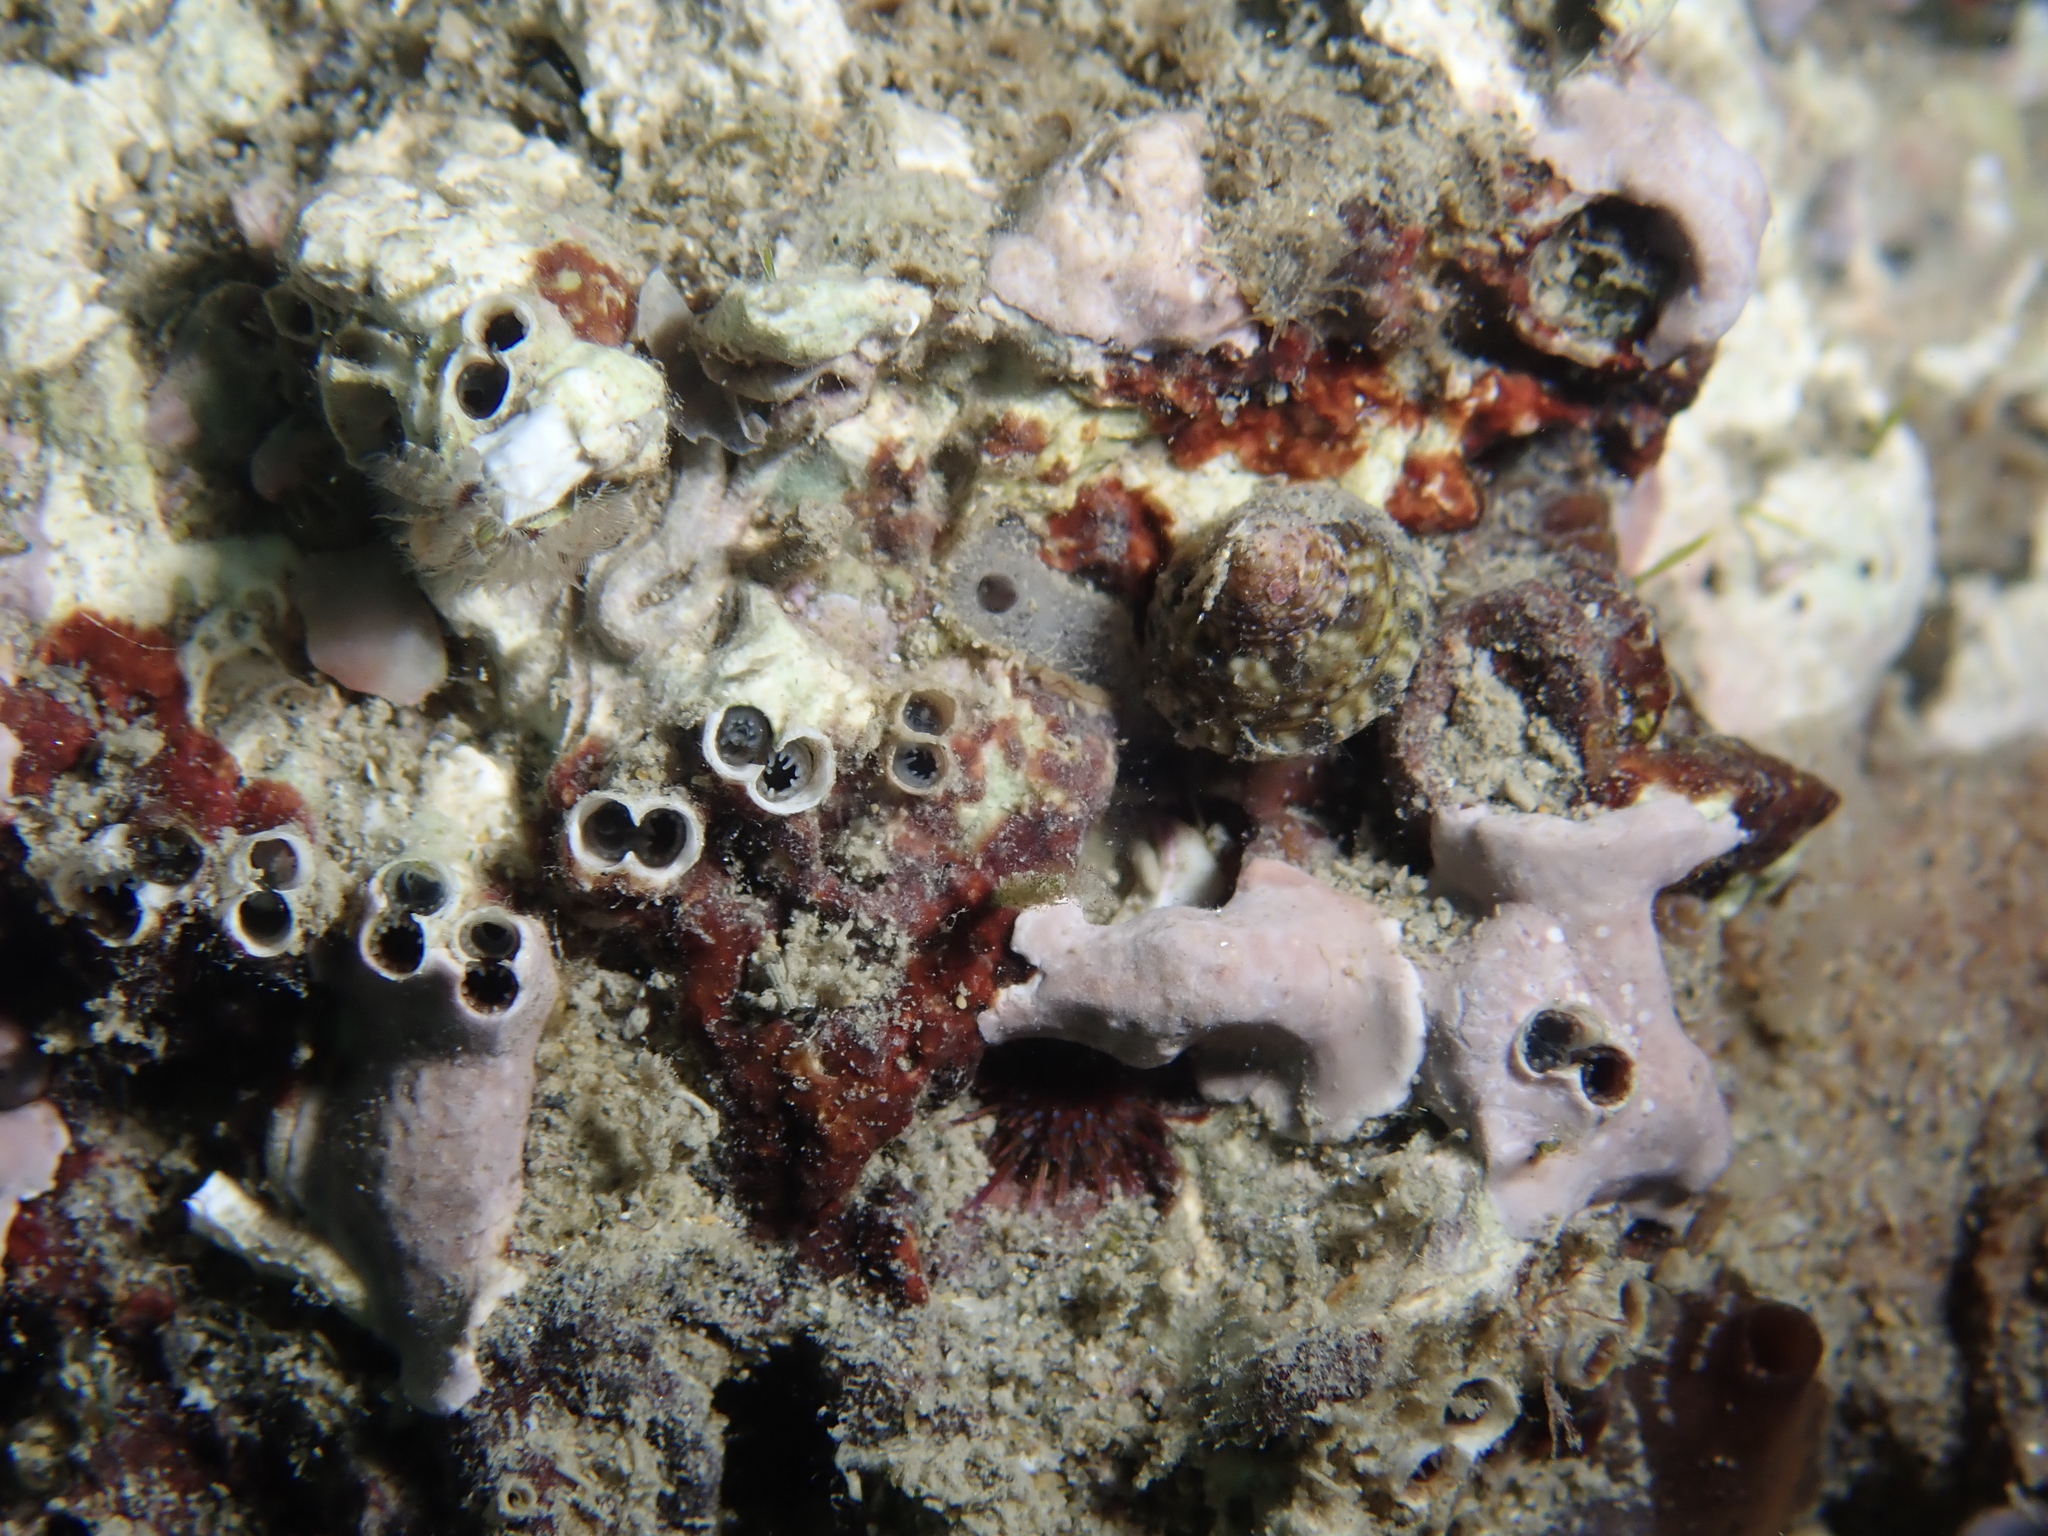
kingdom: Animalia
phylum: Mollusca
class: Bivalvia
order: Gastrochaenida
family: Gastrochaenidae
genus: Rocellaria
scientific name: Rocellaria dubia
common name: European flask shell
